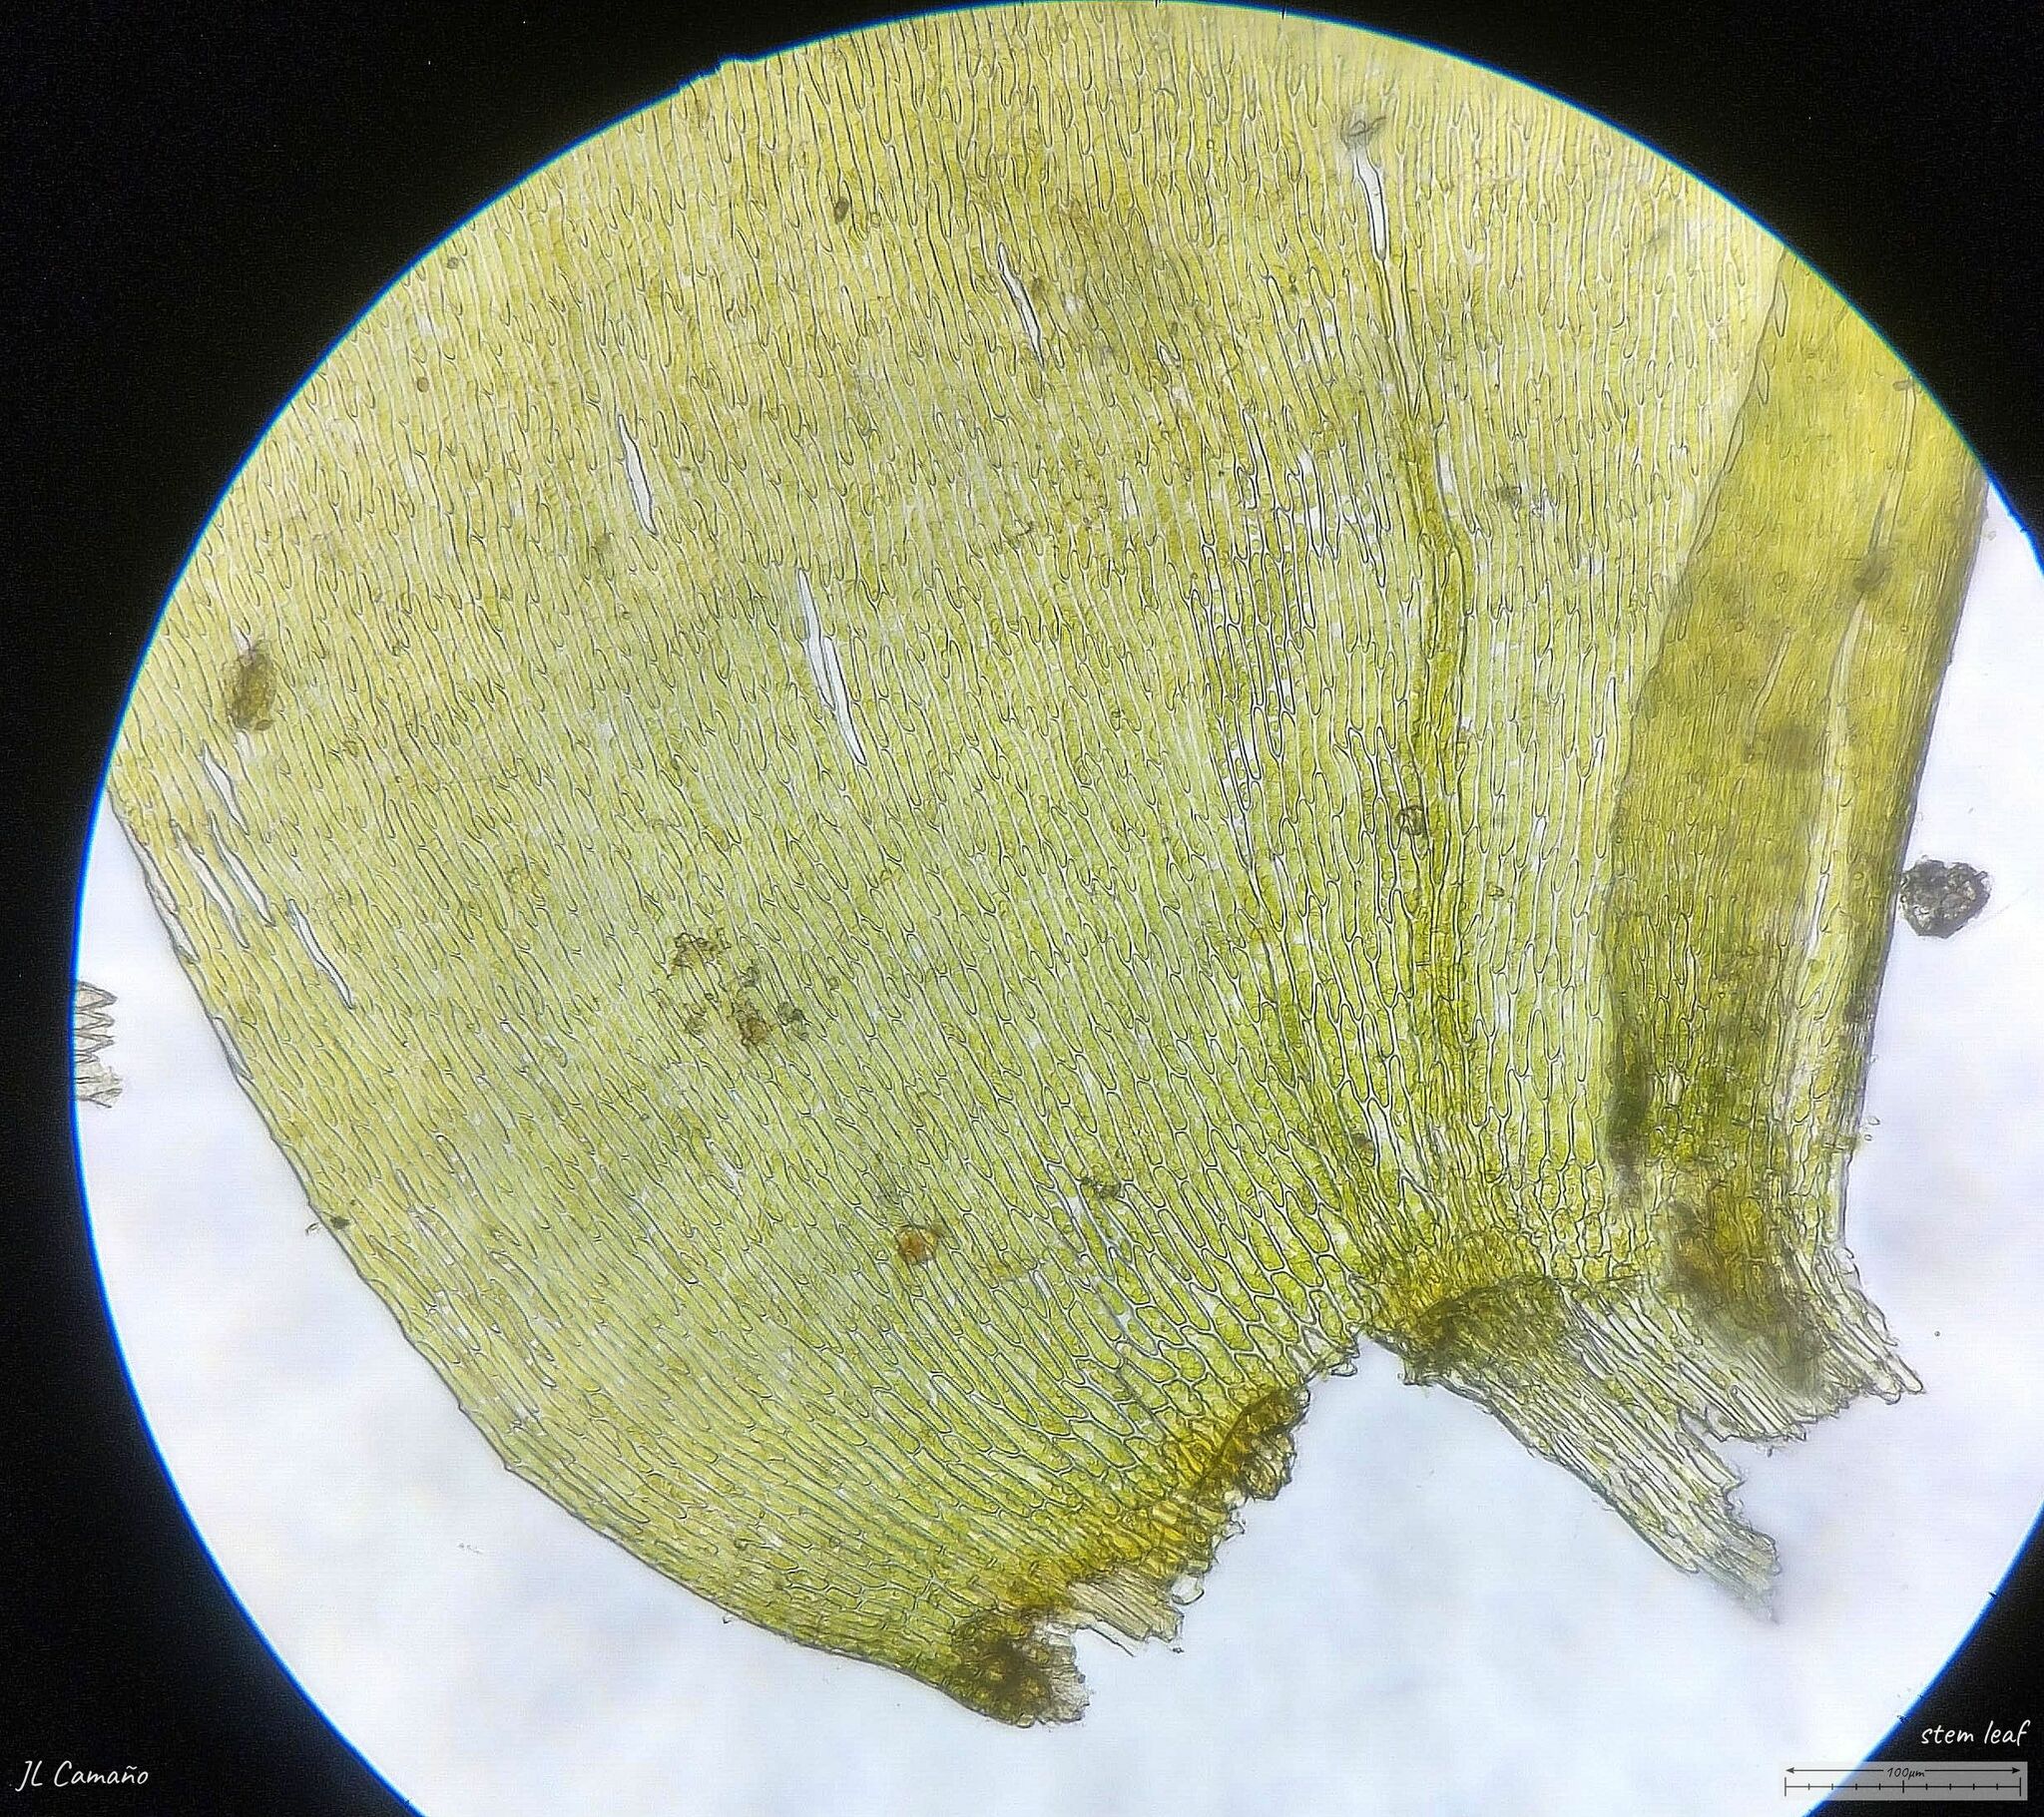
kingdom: Plantae
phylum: Bryophyta
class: Bryopsida
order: Hypnales
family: Neckeraceae
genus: Alleniella
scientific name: Alleniella complanata
